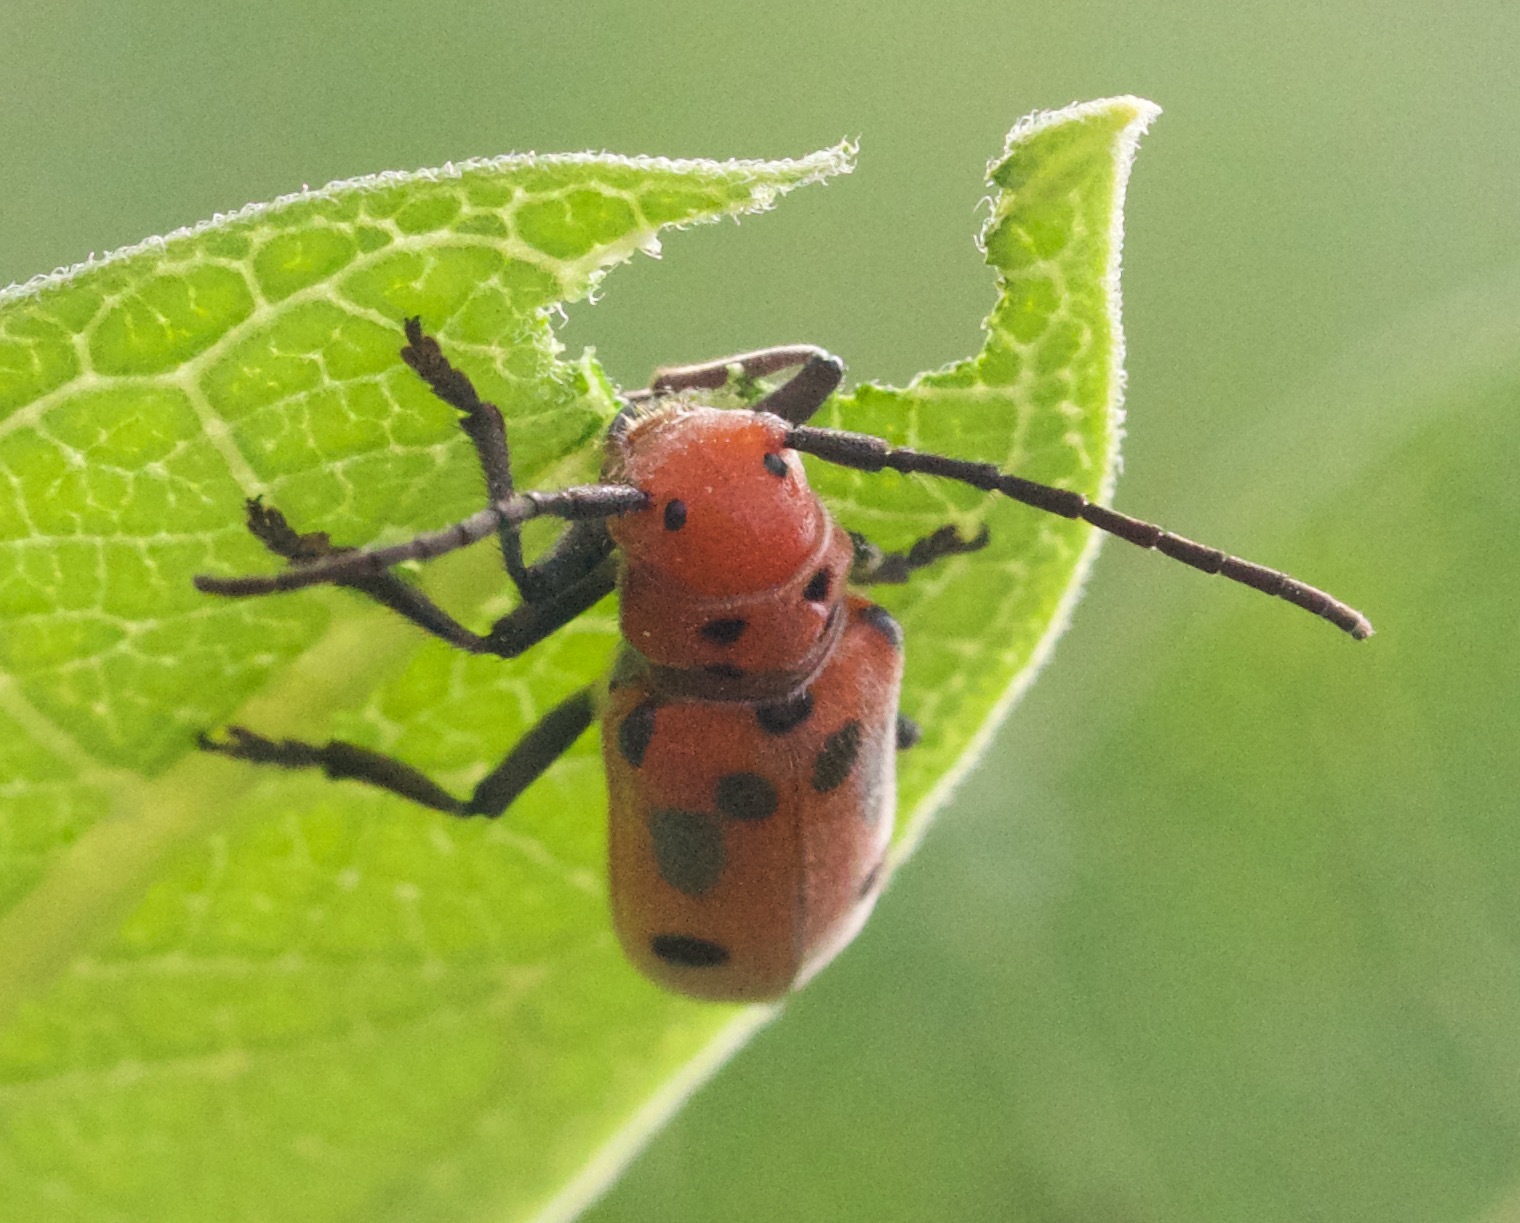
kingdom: Animalia
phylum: Arthropoda
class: Insecta
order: Coleoptera
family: Cerambycidae
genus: Tetraopes
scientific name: Tetraopes tetrophthalmus
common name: Red milkweed beetle
